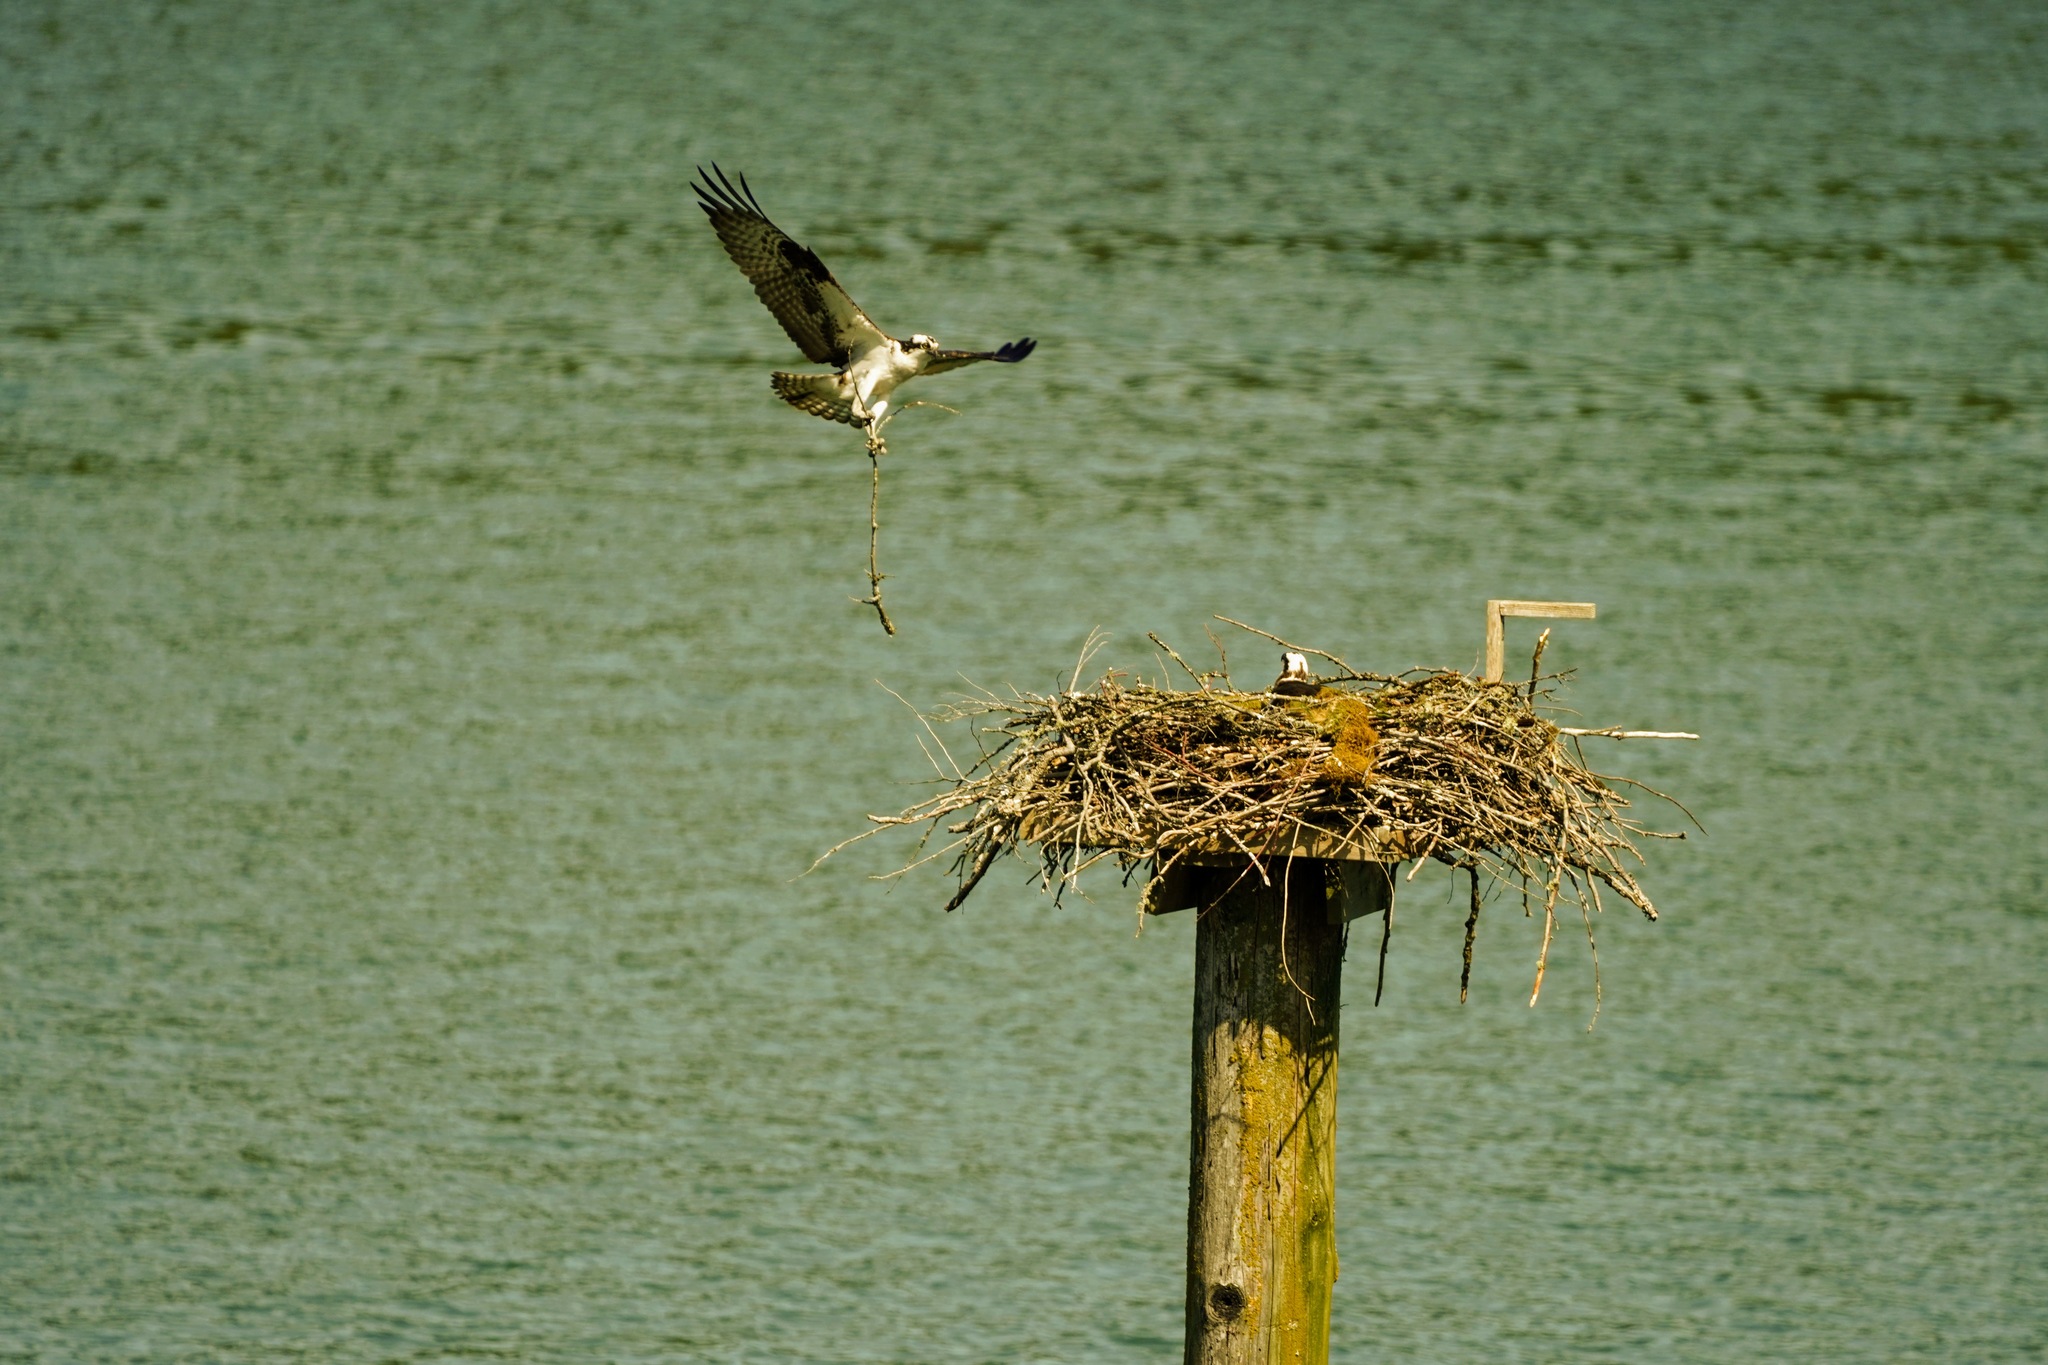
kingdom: Animalia
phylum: Chordata
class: Aves
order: Accipitriformes
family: Pandionidae
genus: Pandion
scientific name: Pandion haliaetus
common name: Osprey
